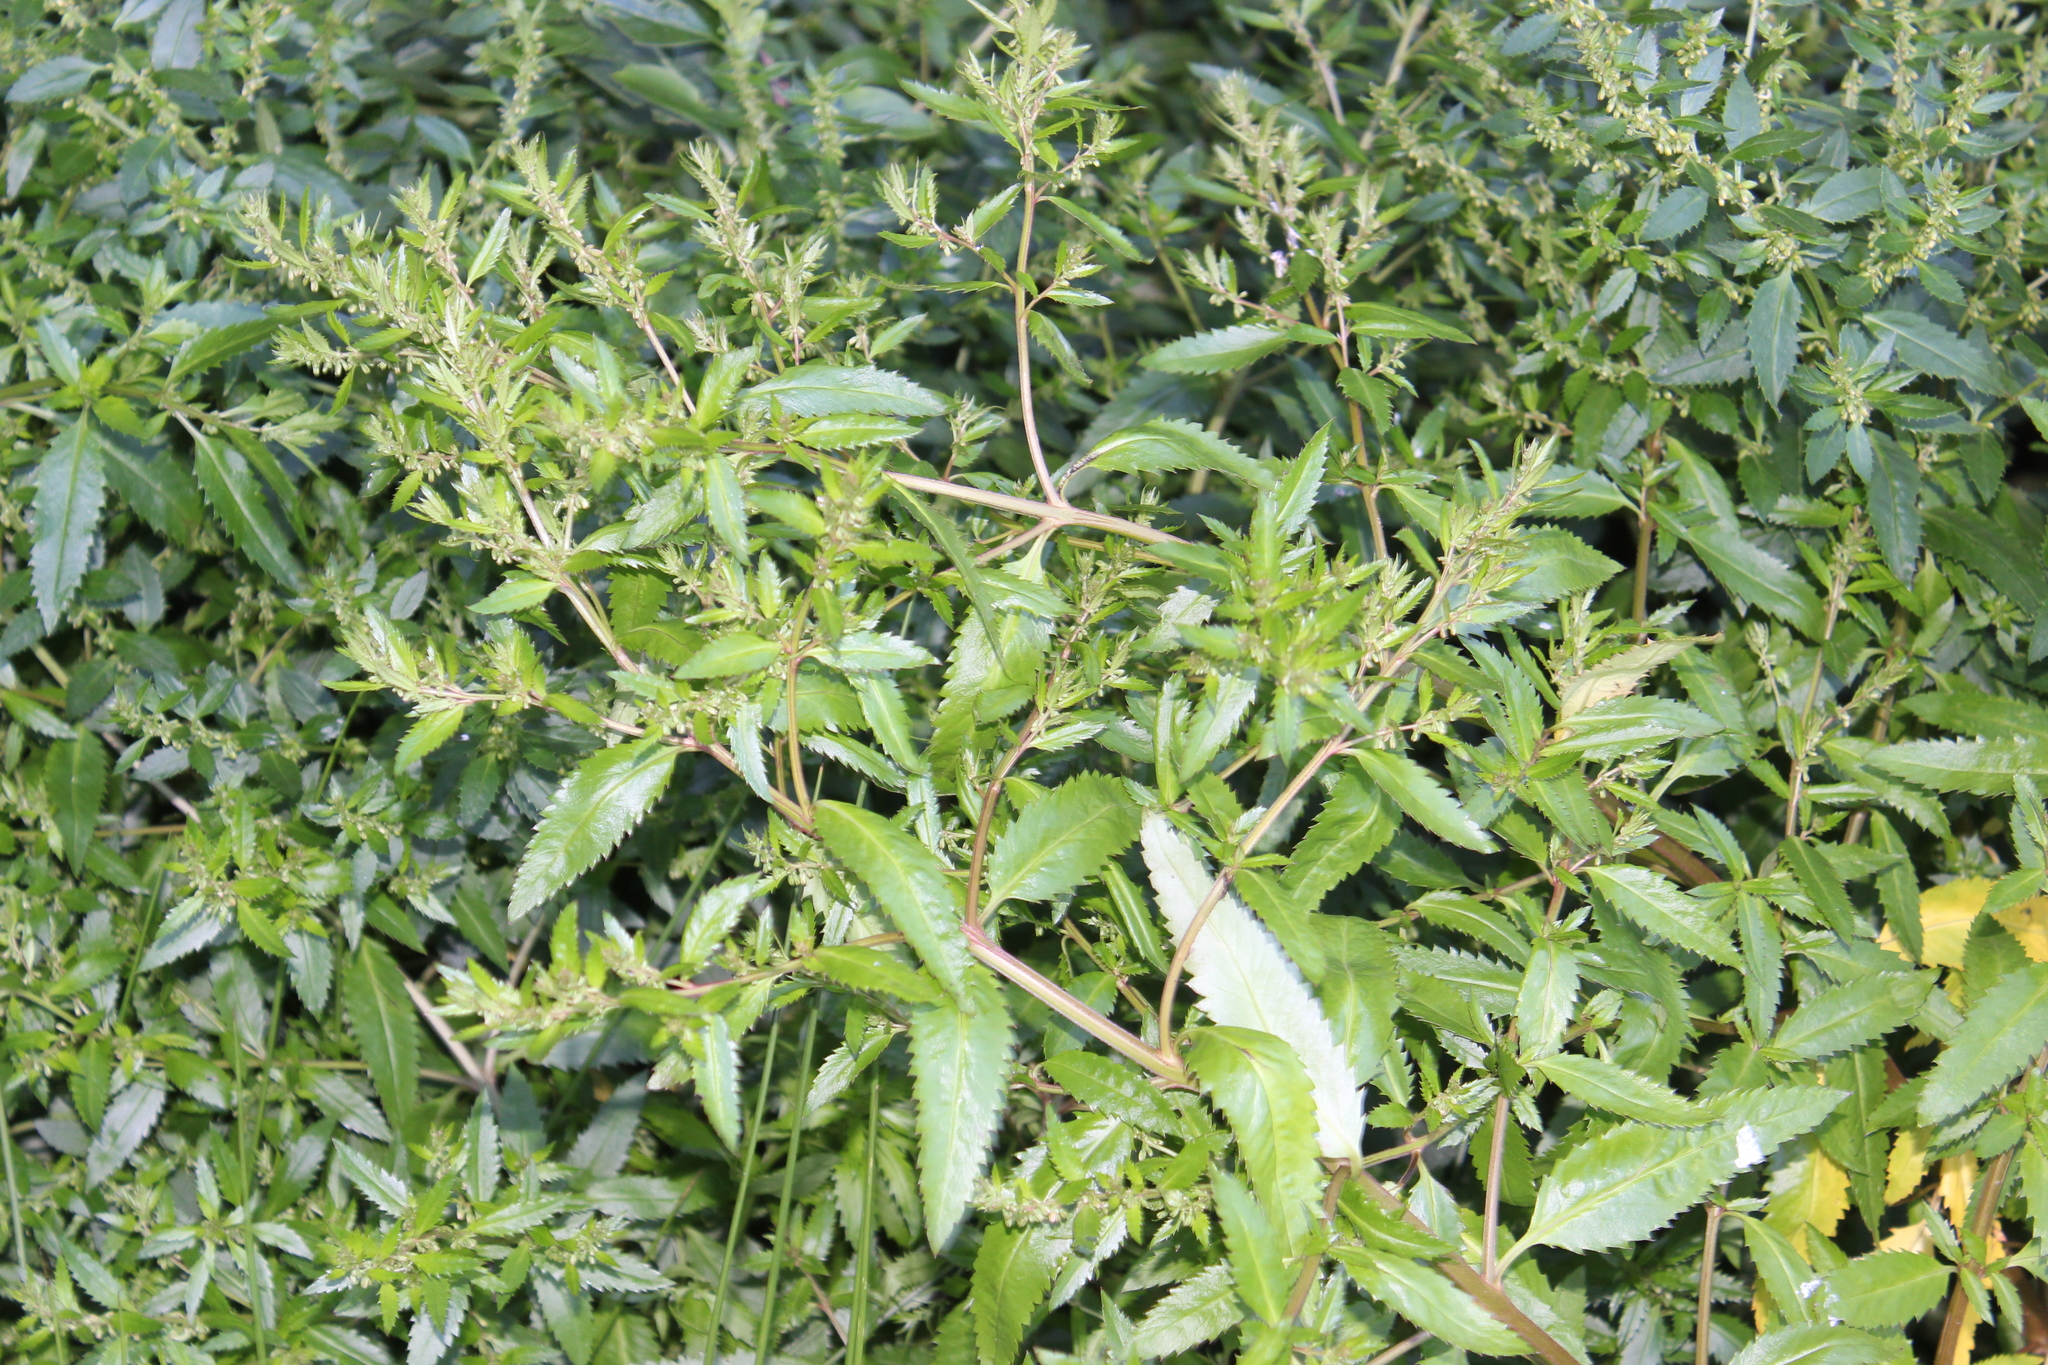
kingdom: Plantae
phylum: Tracheophyta
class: Magnoliopsida
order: Saxifragales
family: Haloragaceae
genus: Haloragis
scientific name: Haloragis erecta
